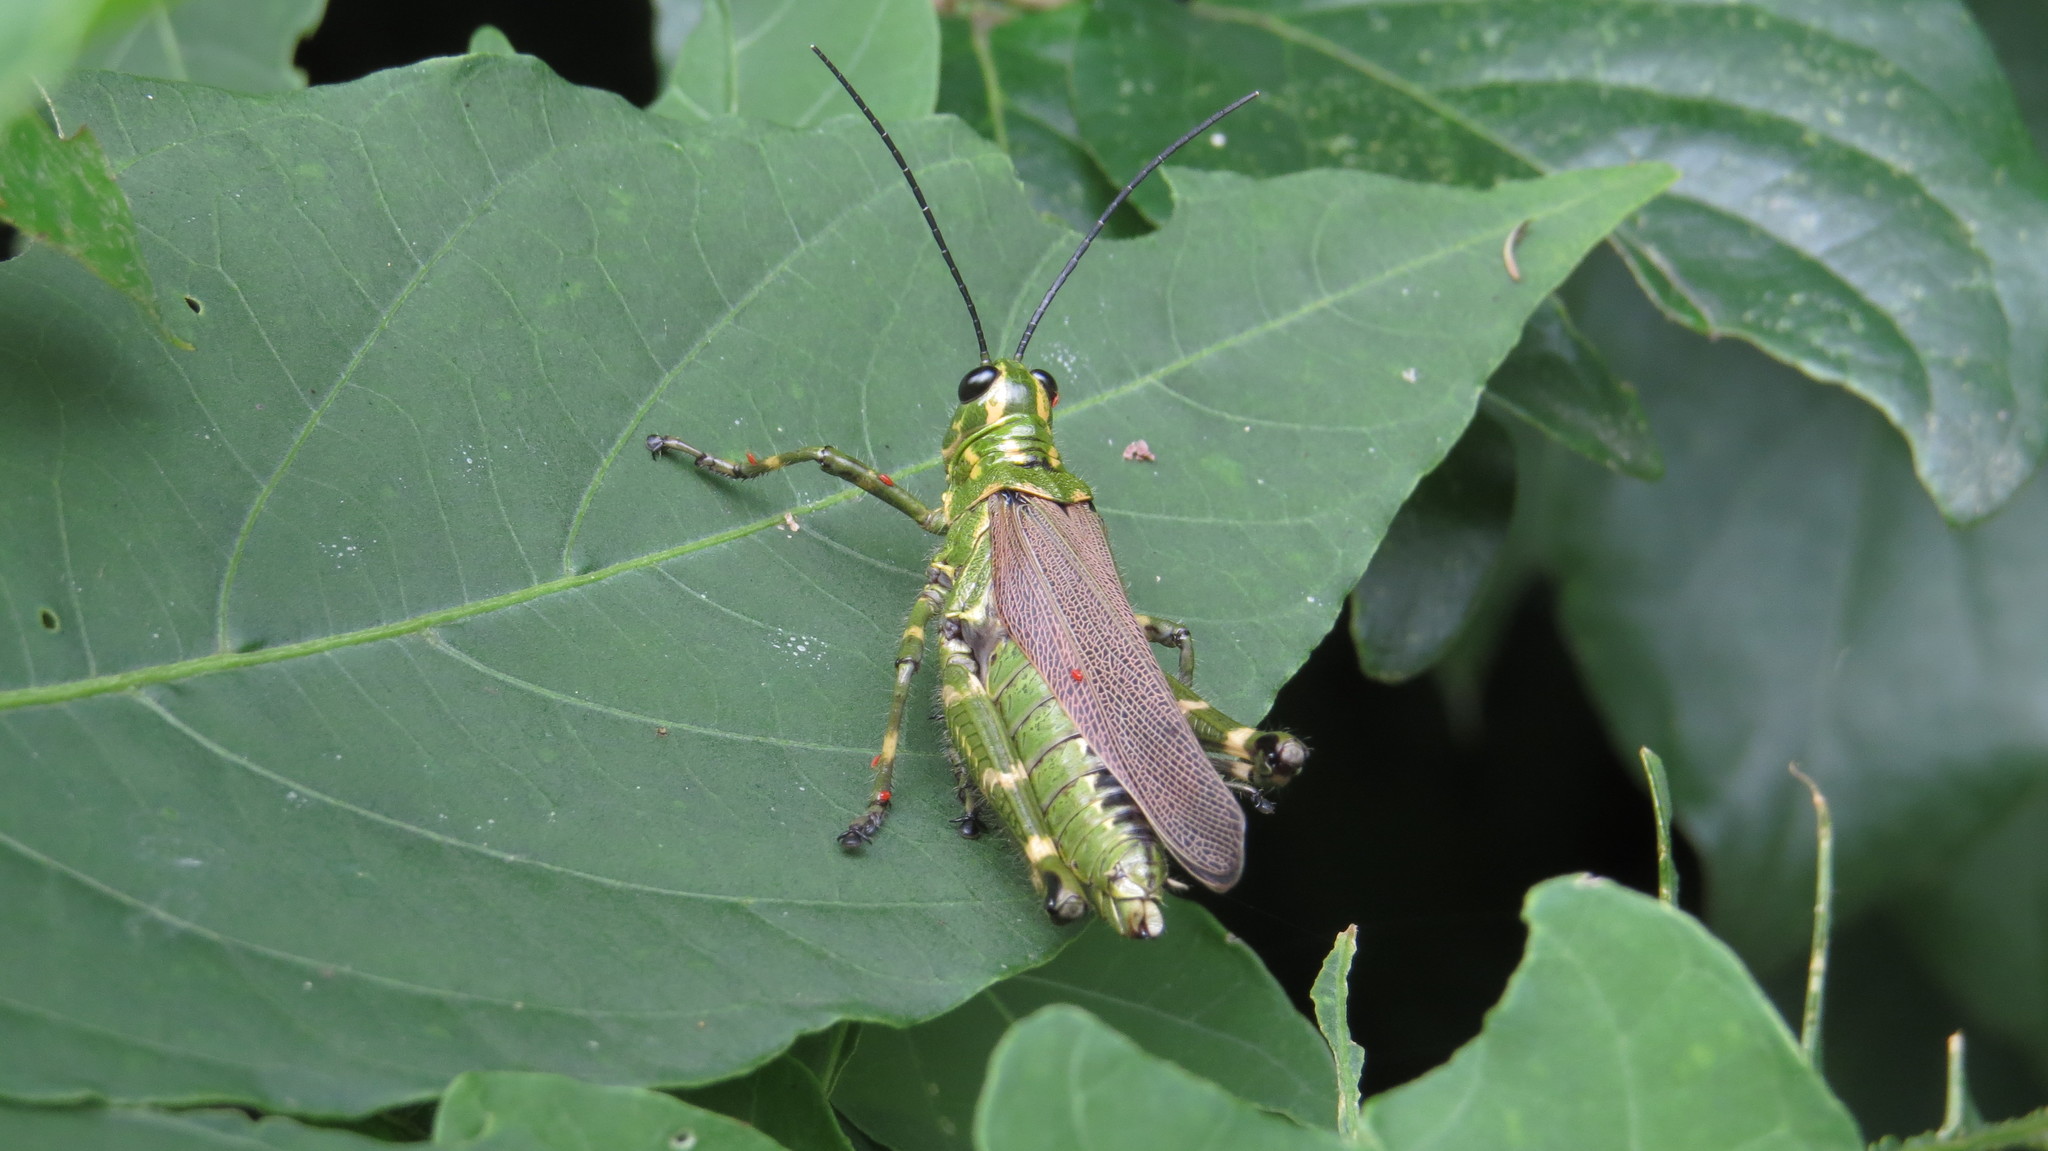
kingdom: Animalia
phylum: Arthropoda
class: Insecta
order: Orthoptera
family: Romaleidae
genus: Chromacris
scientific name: Chromacris speciosa
